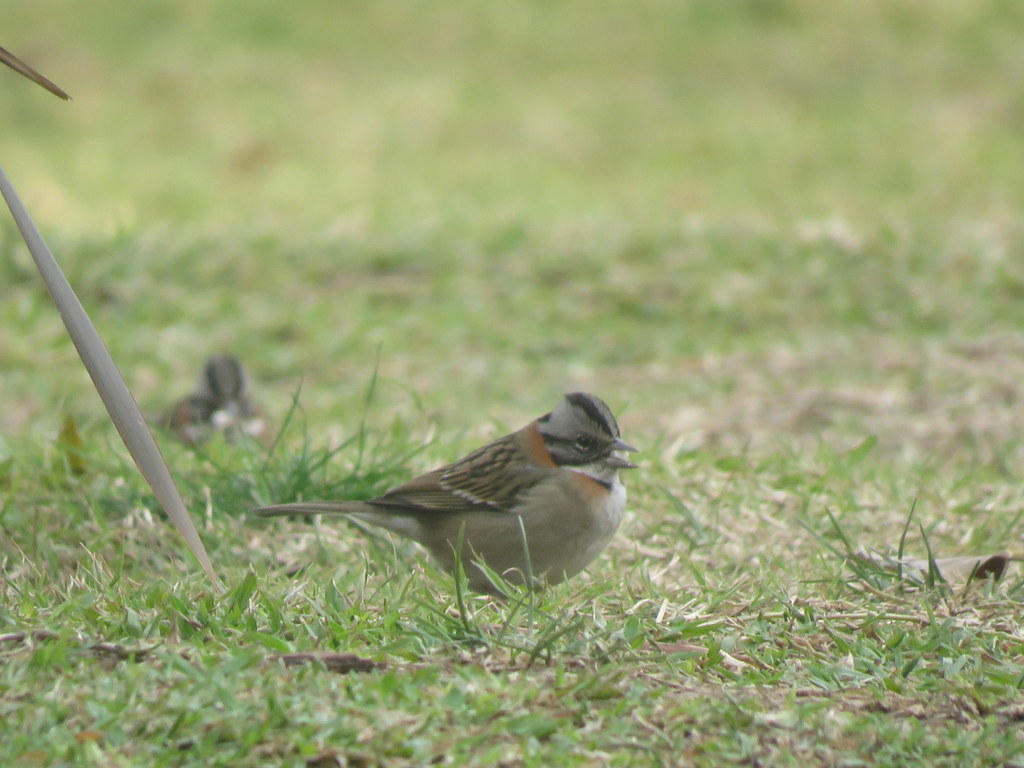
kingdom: Animalia
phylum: Chordata
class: Aves
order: Passeriformes
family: Passerellidae
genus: Zonotrichia
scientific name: Zonotrichia capensis
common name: Rufous-collared sparrow
